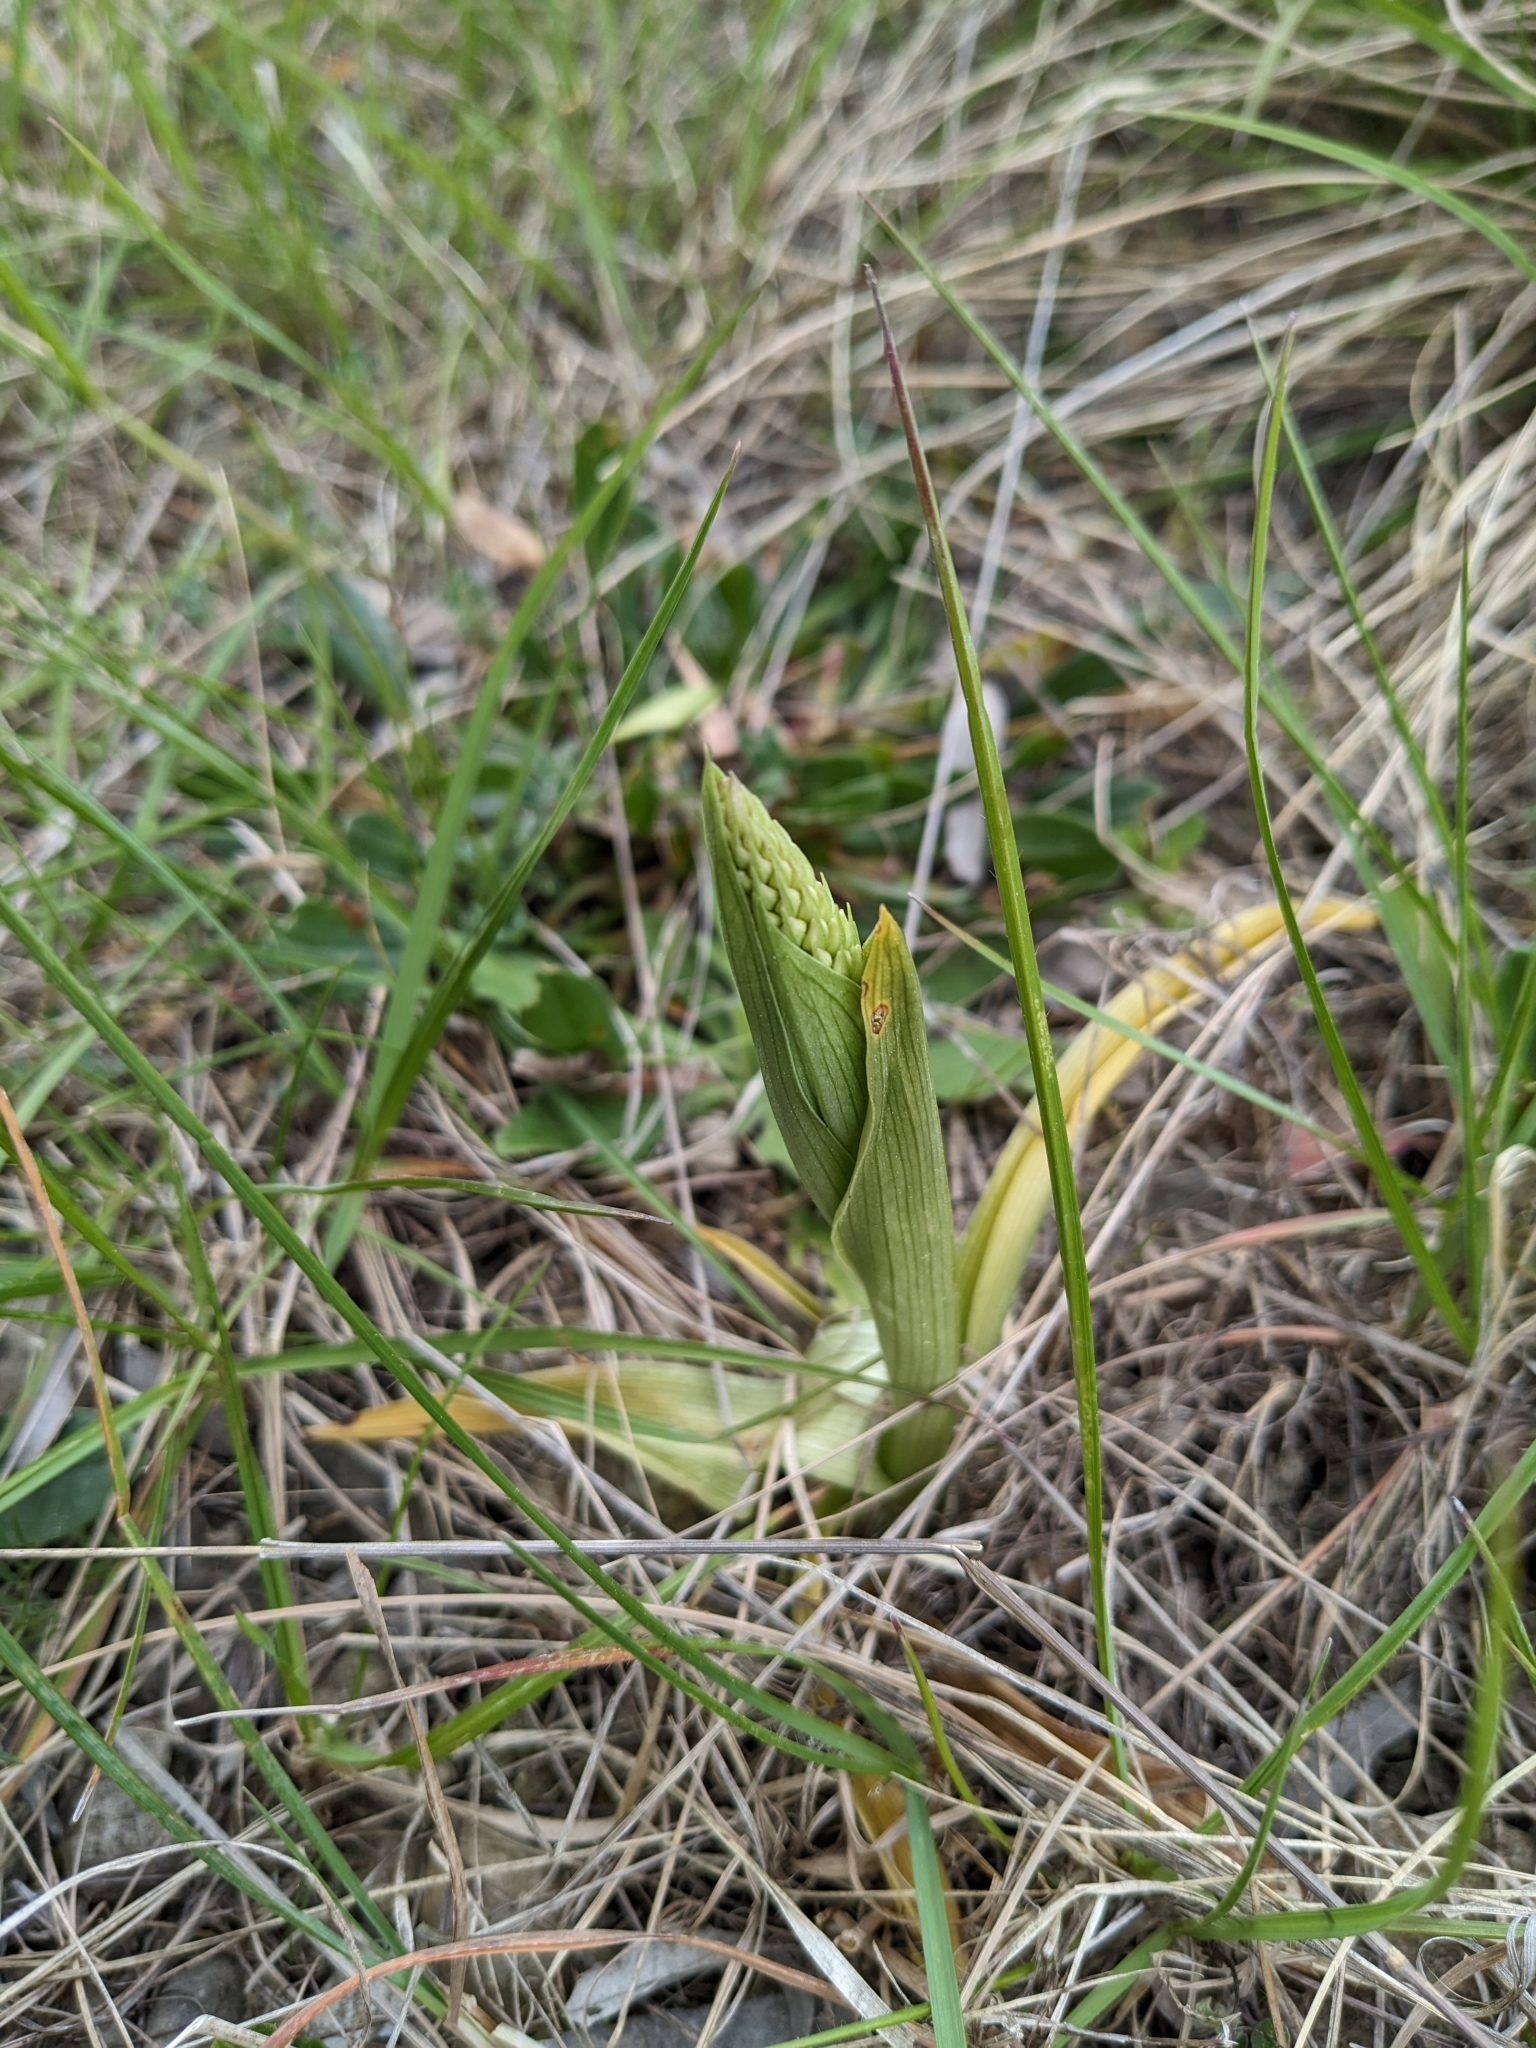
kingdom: Plantae
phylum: Tracheophyta
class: Liliopsida
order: Asparagales
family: Orchidaceae
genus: Anacamptis
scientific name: Anacamptis pyramidalis
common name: Pyramidal orchid
